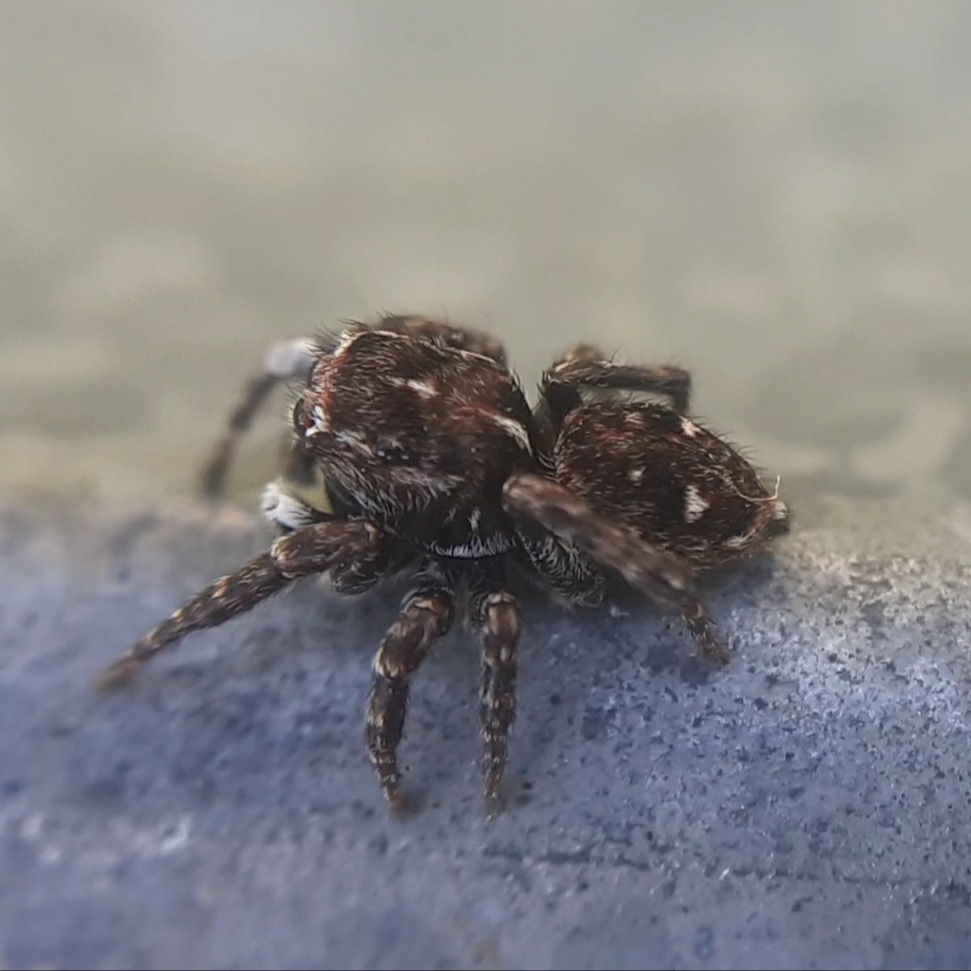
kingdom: Animalia
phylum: Arthropoda
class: Arachnida
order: Araneae
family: Salticidae
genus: Attulus
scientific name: Attulus inexpectus
